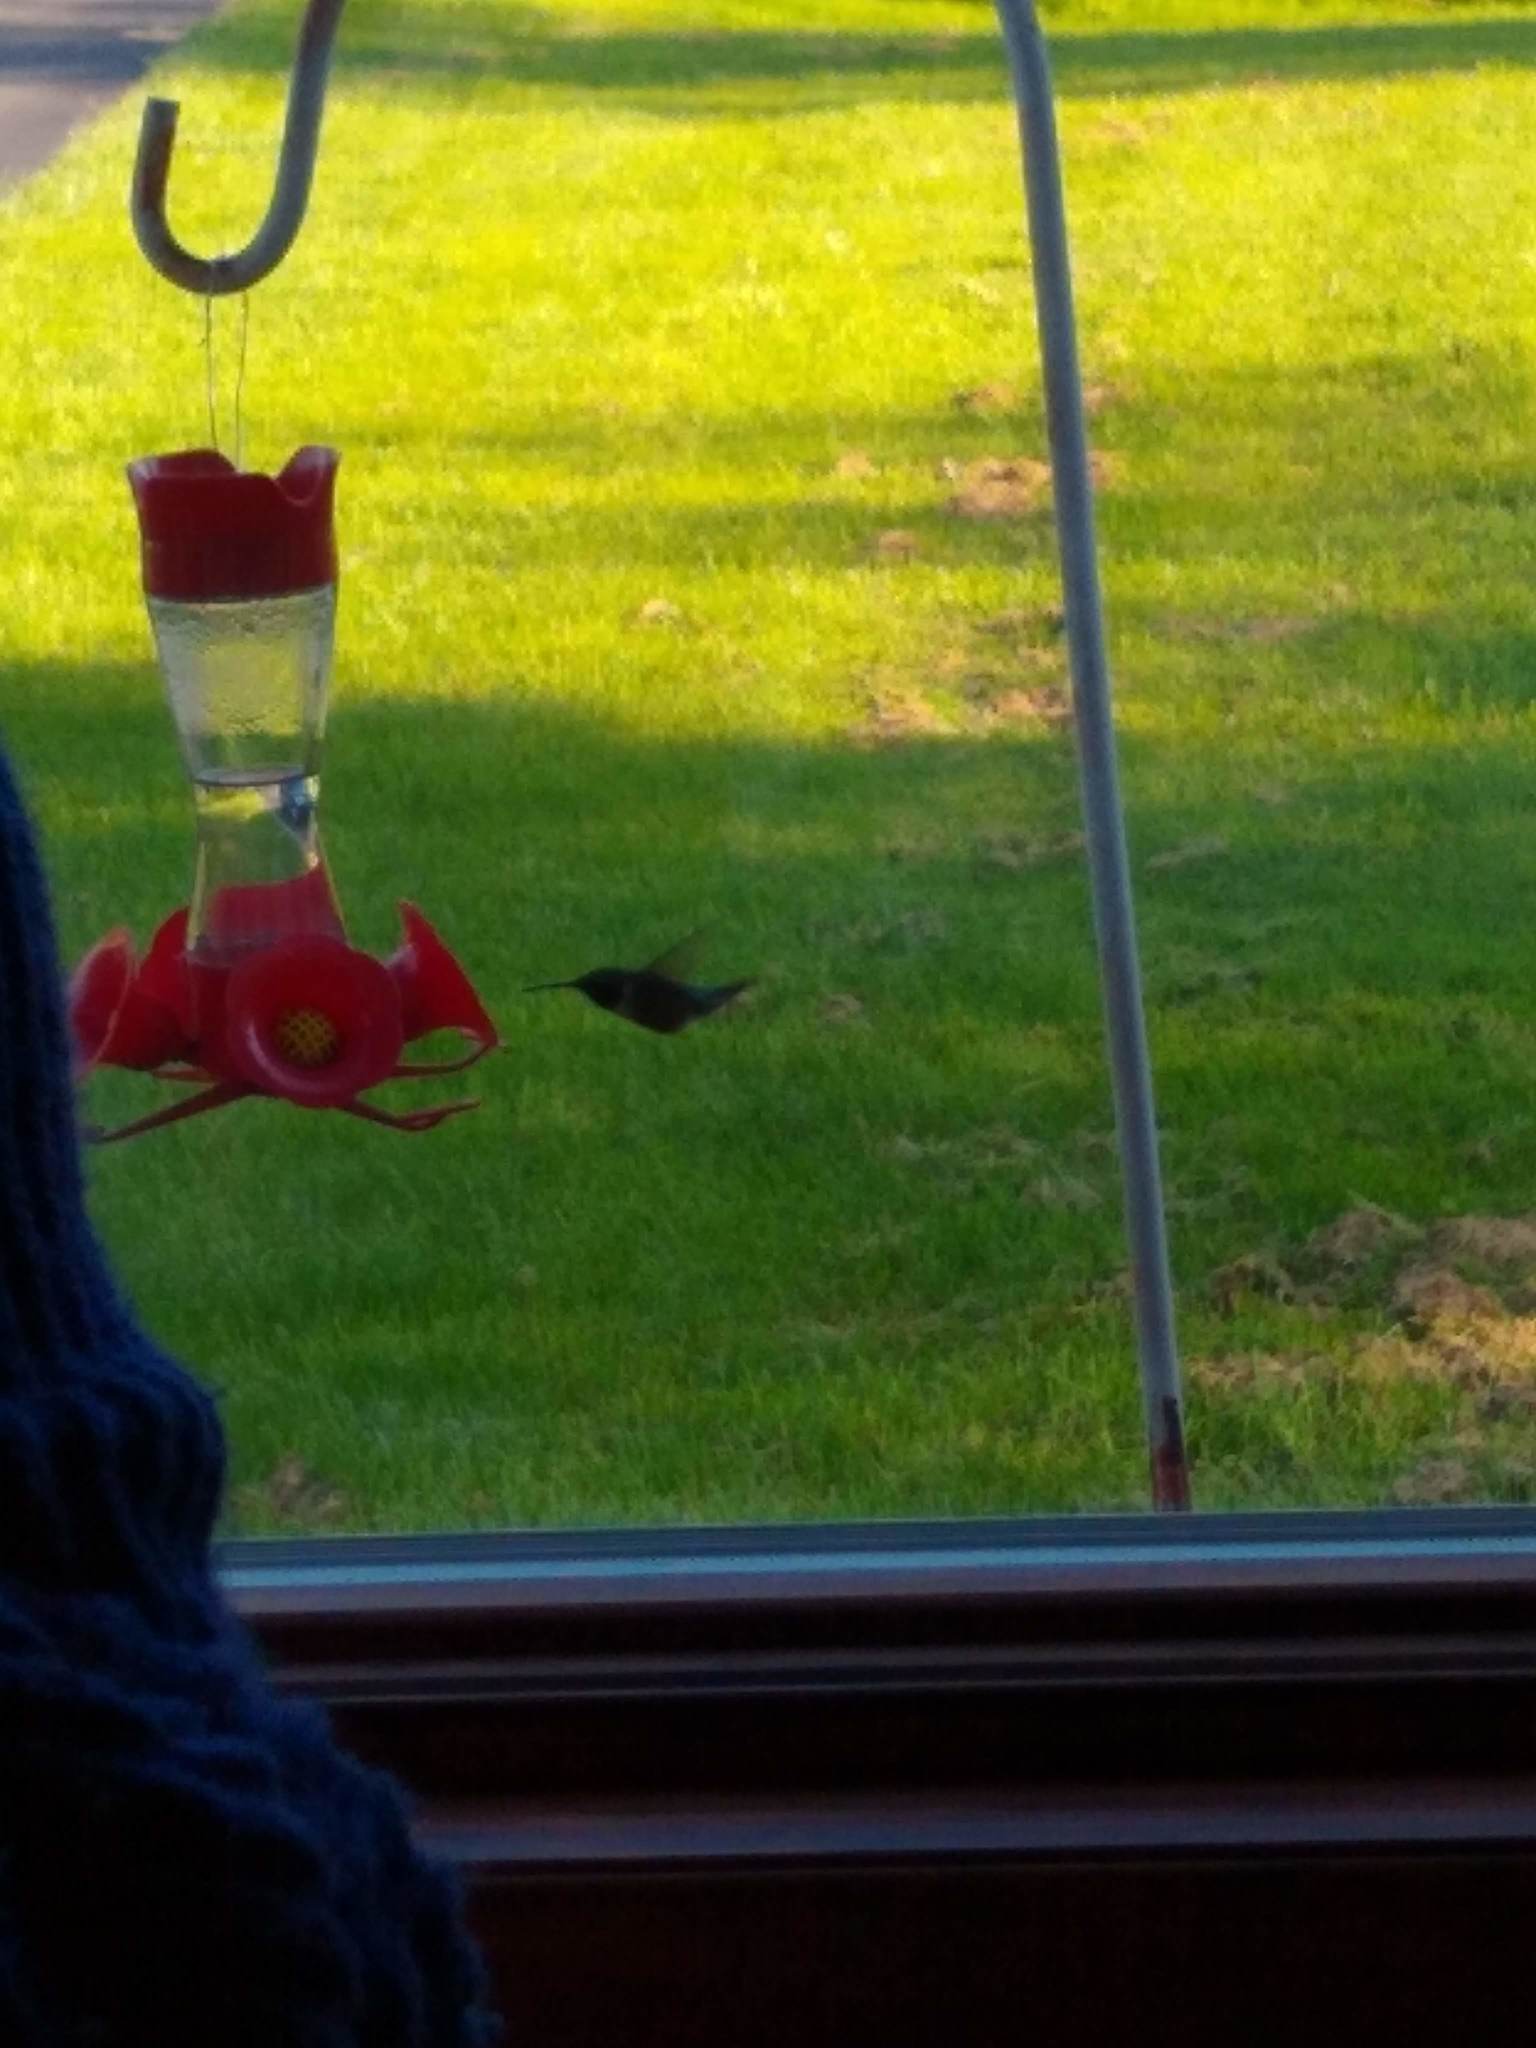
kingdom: Animalia
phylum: Chordata
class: Aves
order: Apodiformes
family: Trochilidae
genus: Archilochus
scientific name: Archilochus colubris
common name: Ruby-throated hummingbird
